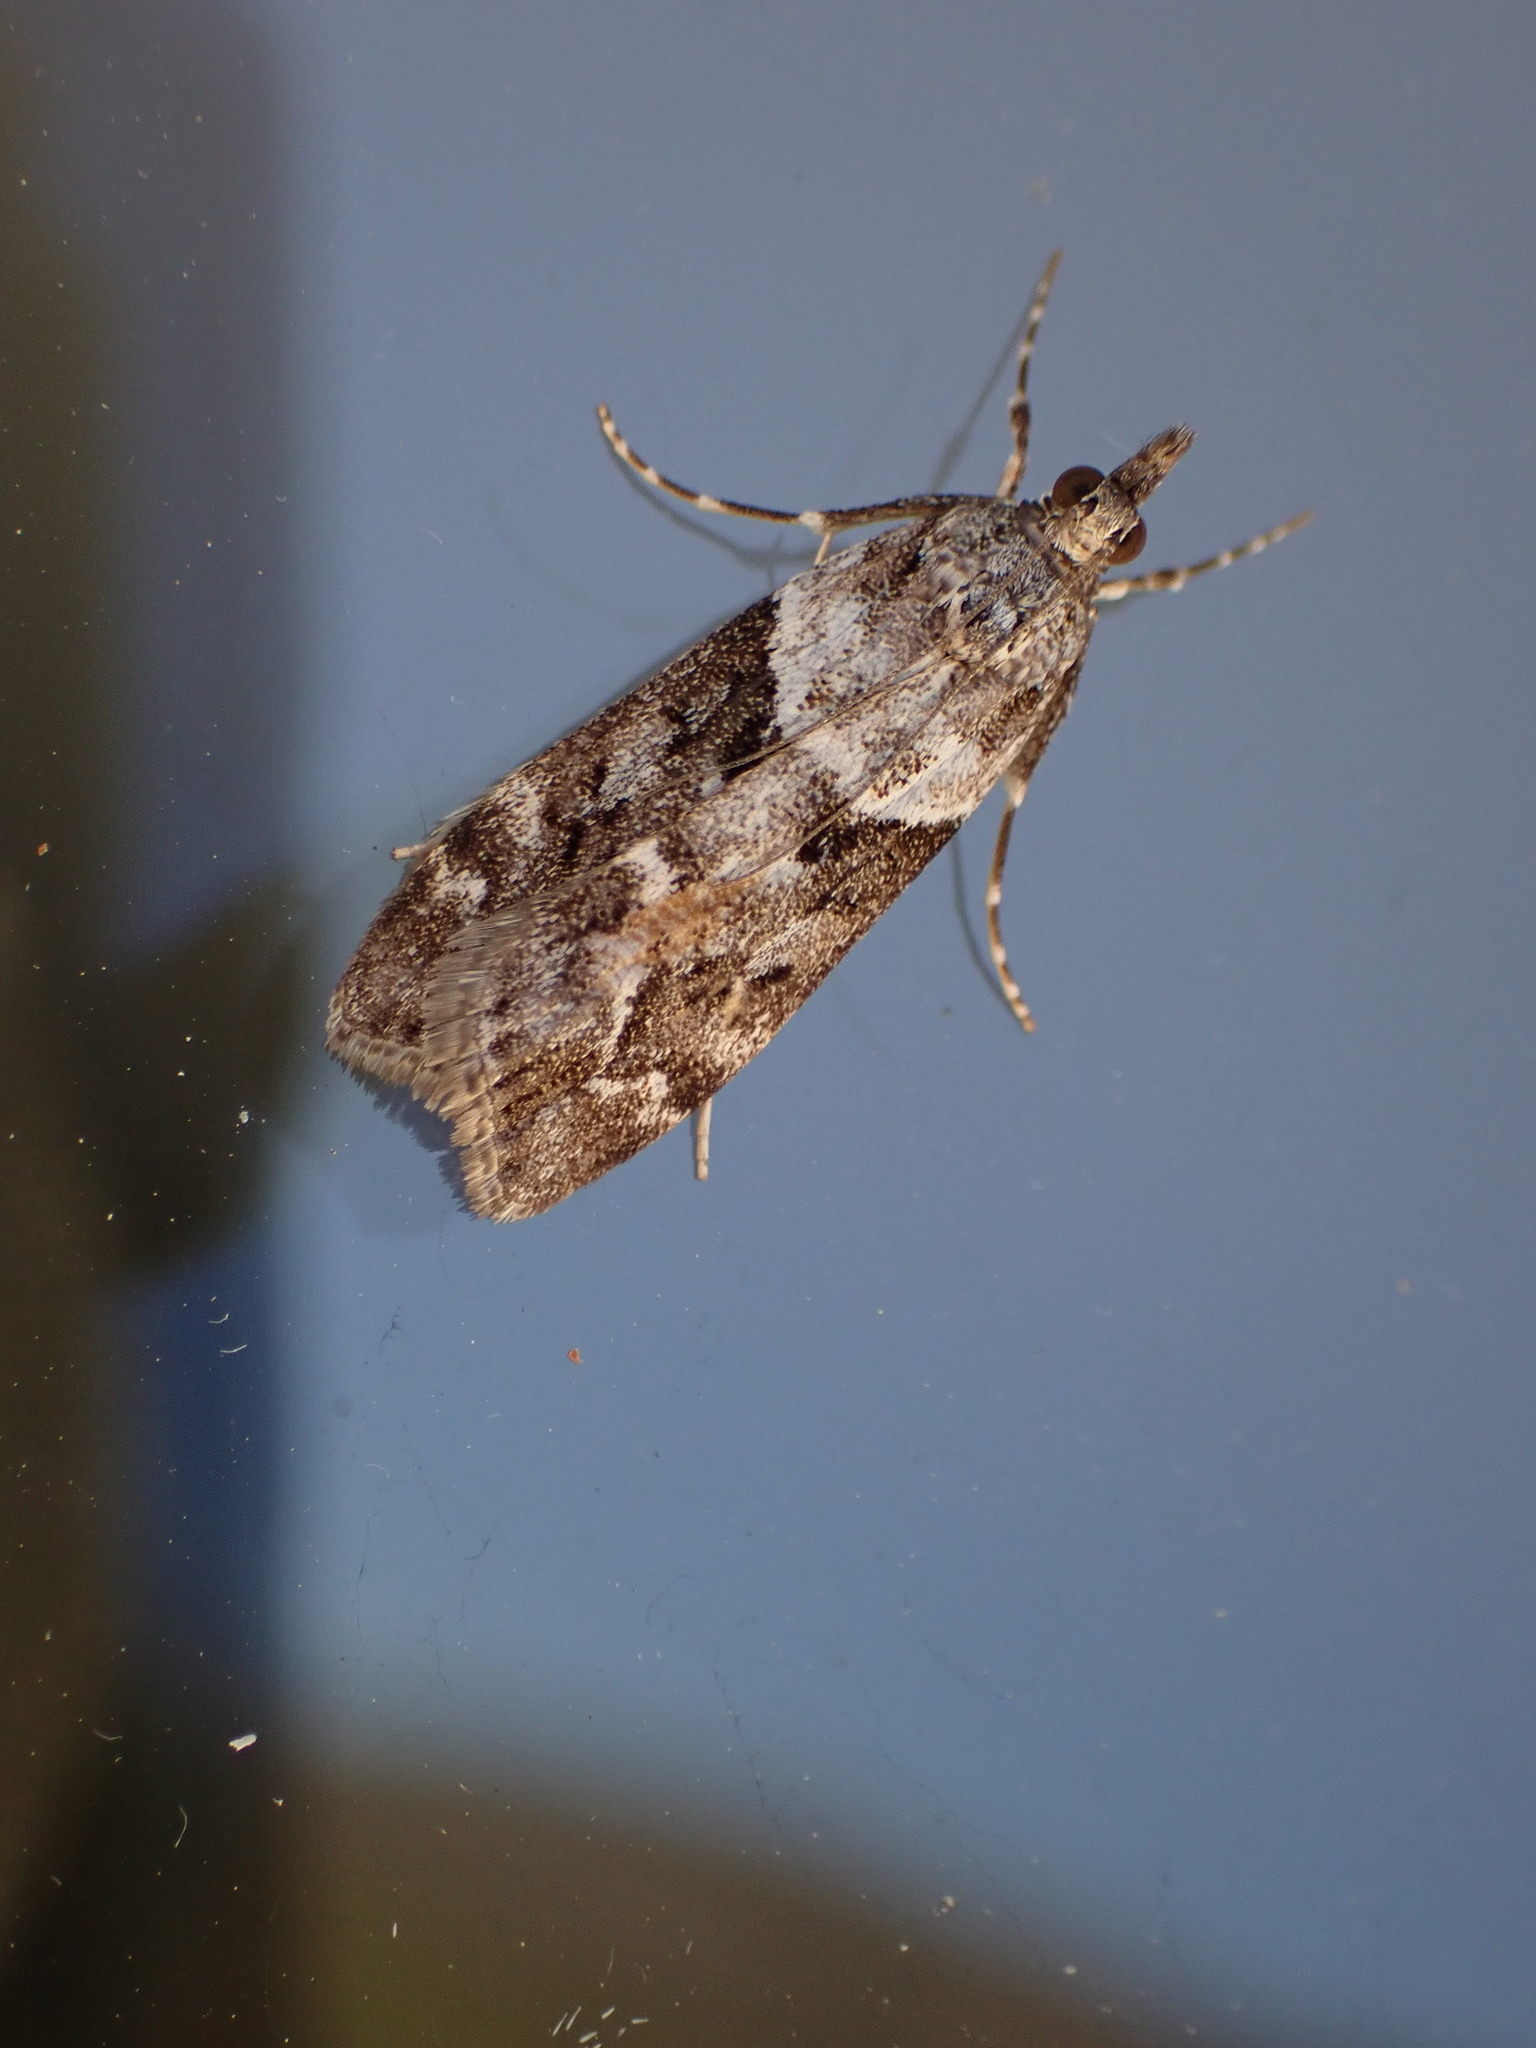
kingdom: Animalia
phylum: Arthropoda
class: Insecta
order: Lepidoptera
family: Crambidae
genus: Eudonia
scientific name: Eudonia submarginalis
